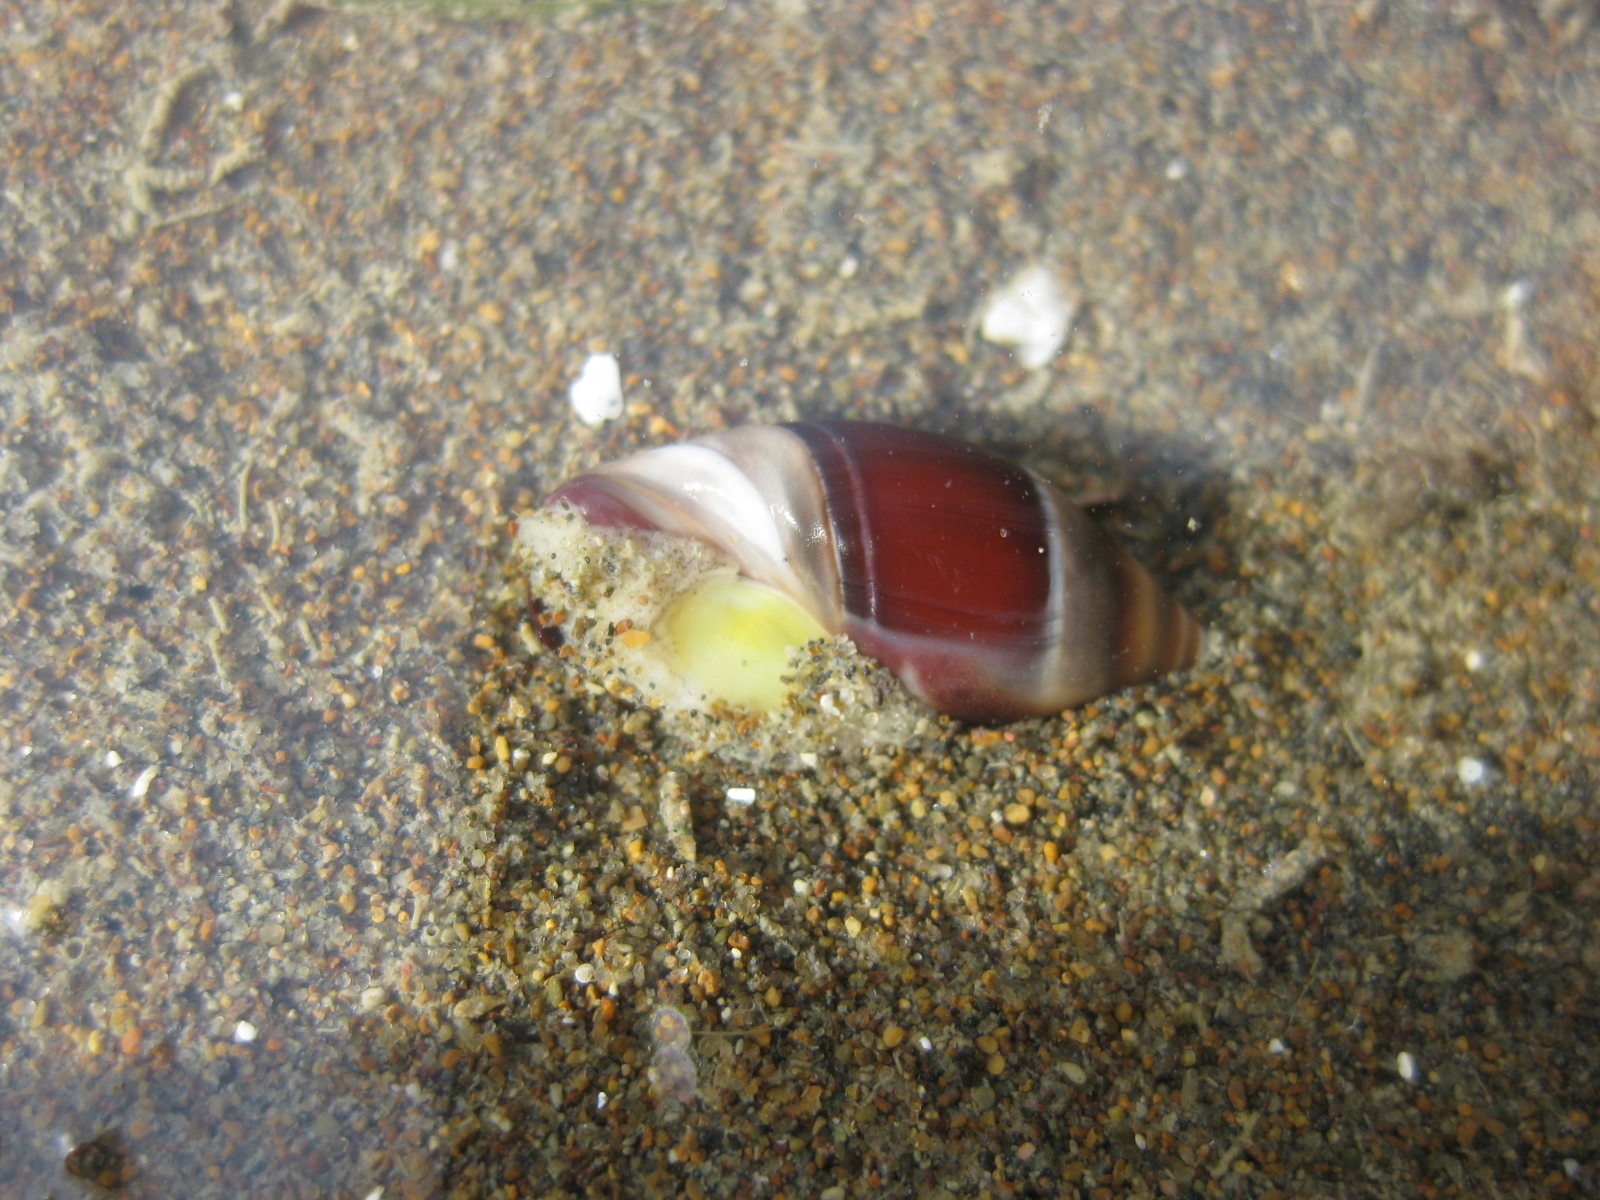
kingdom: Animalia
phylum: Mollusca
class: Gastropoda
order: Neogastropoda
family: Ancillariidae
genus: Amalda
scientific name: Amalda australis
